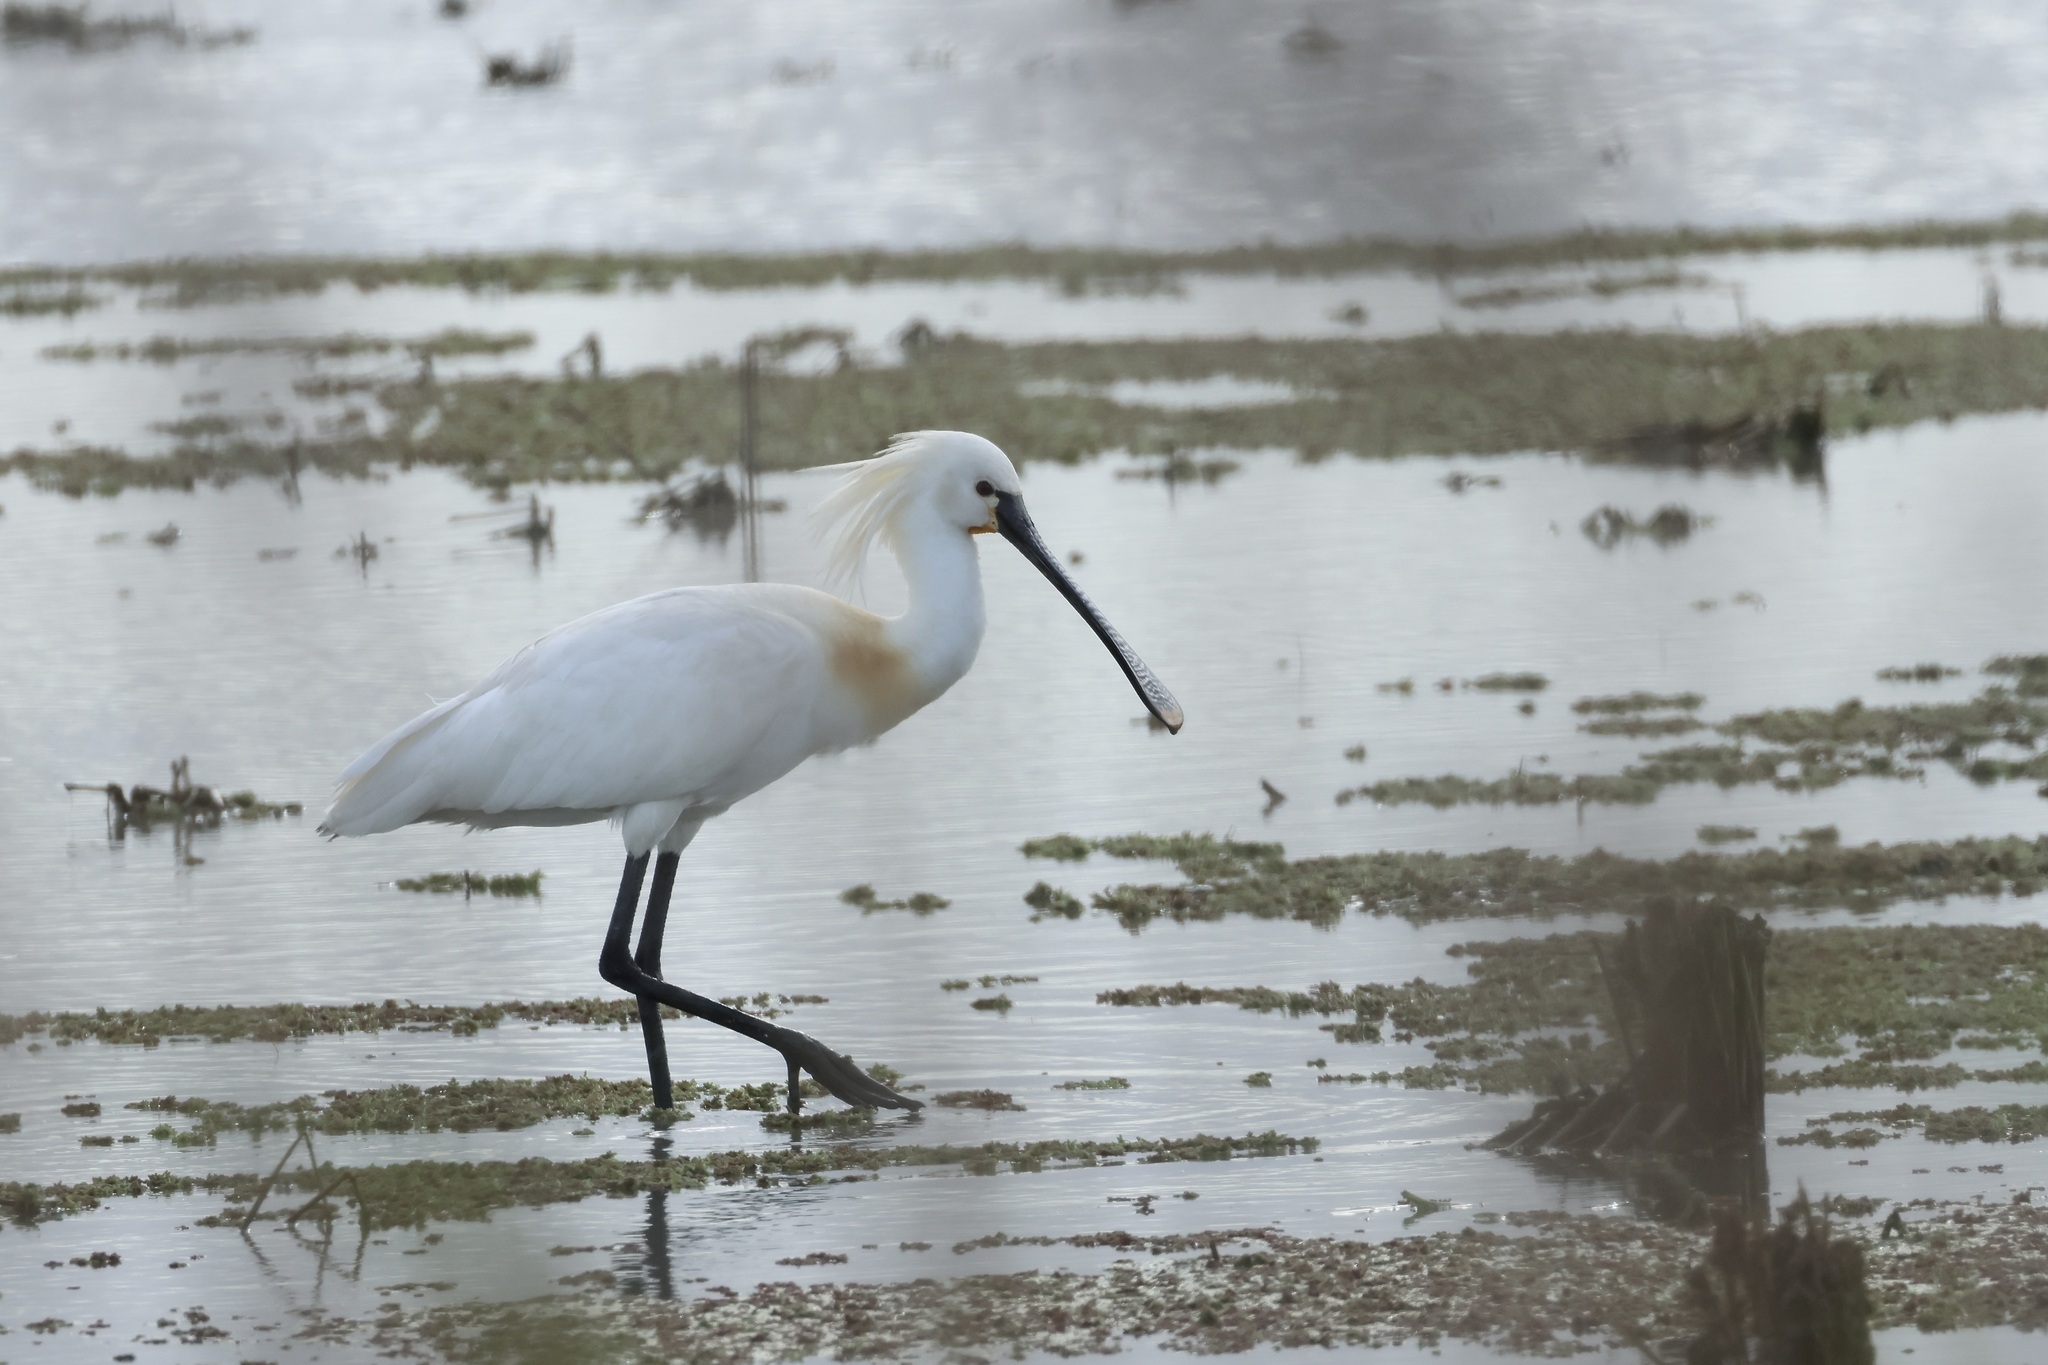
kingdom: Animalia
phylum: Chordata
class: Aves
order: Pelecaniformes
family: Threskiornithidae
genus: Platalea
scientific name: Platalea leucorodia
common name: Eurasian spoonbill
